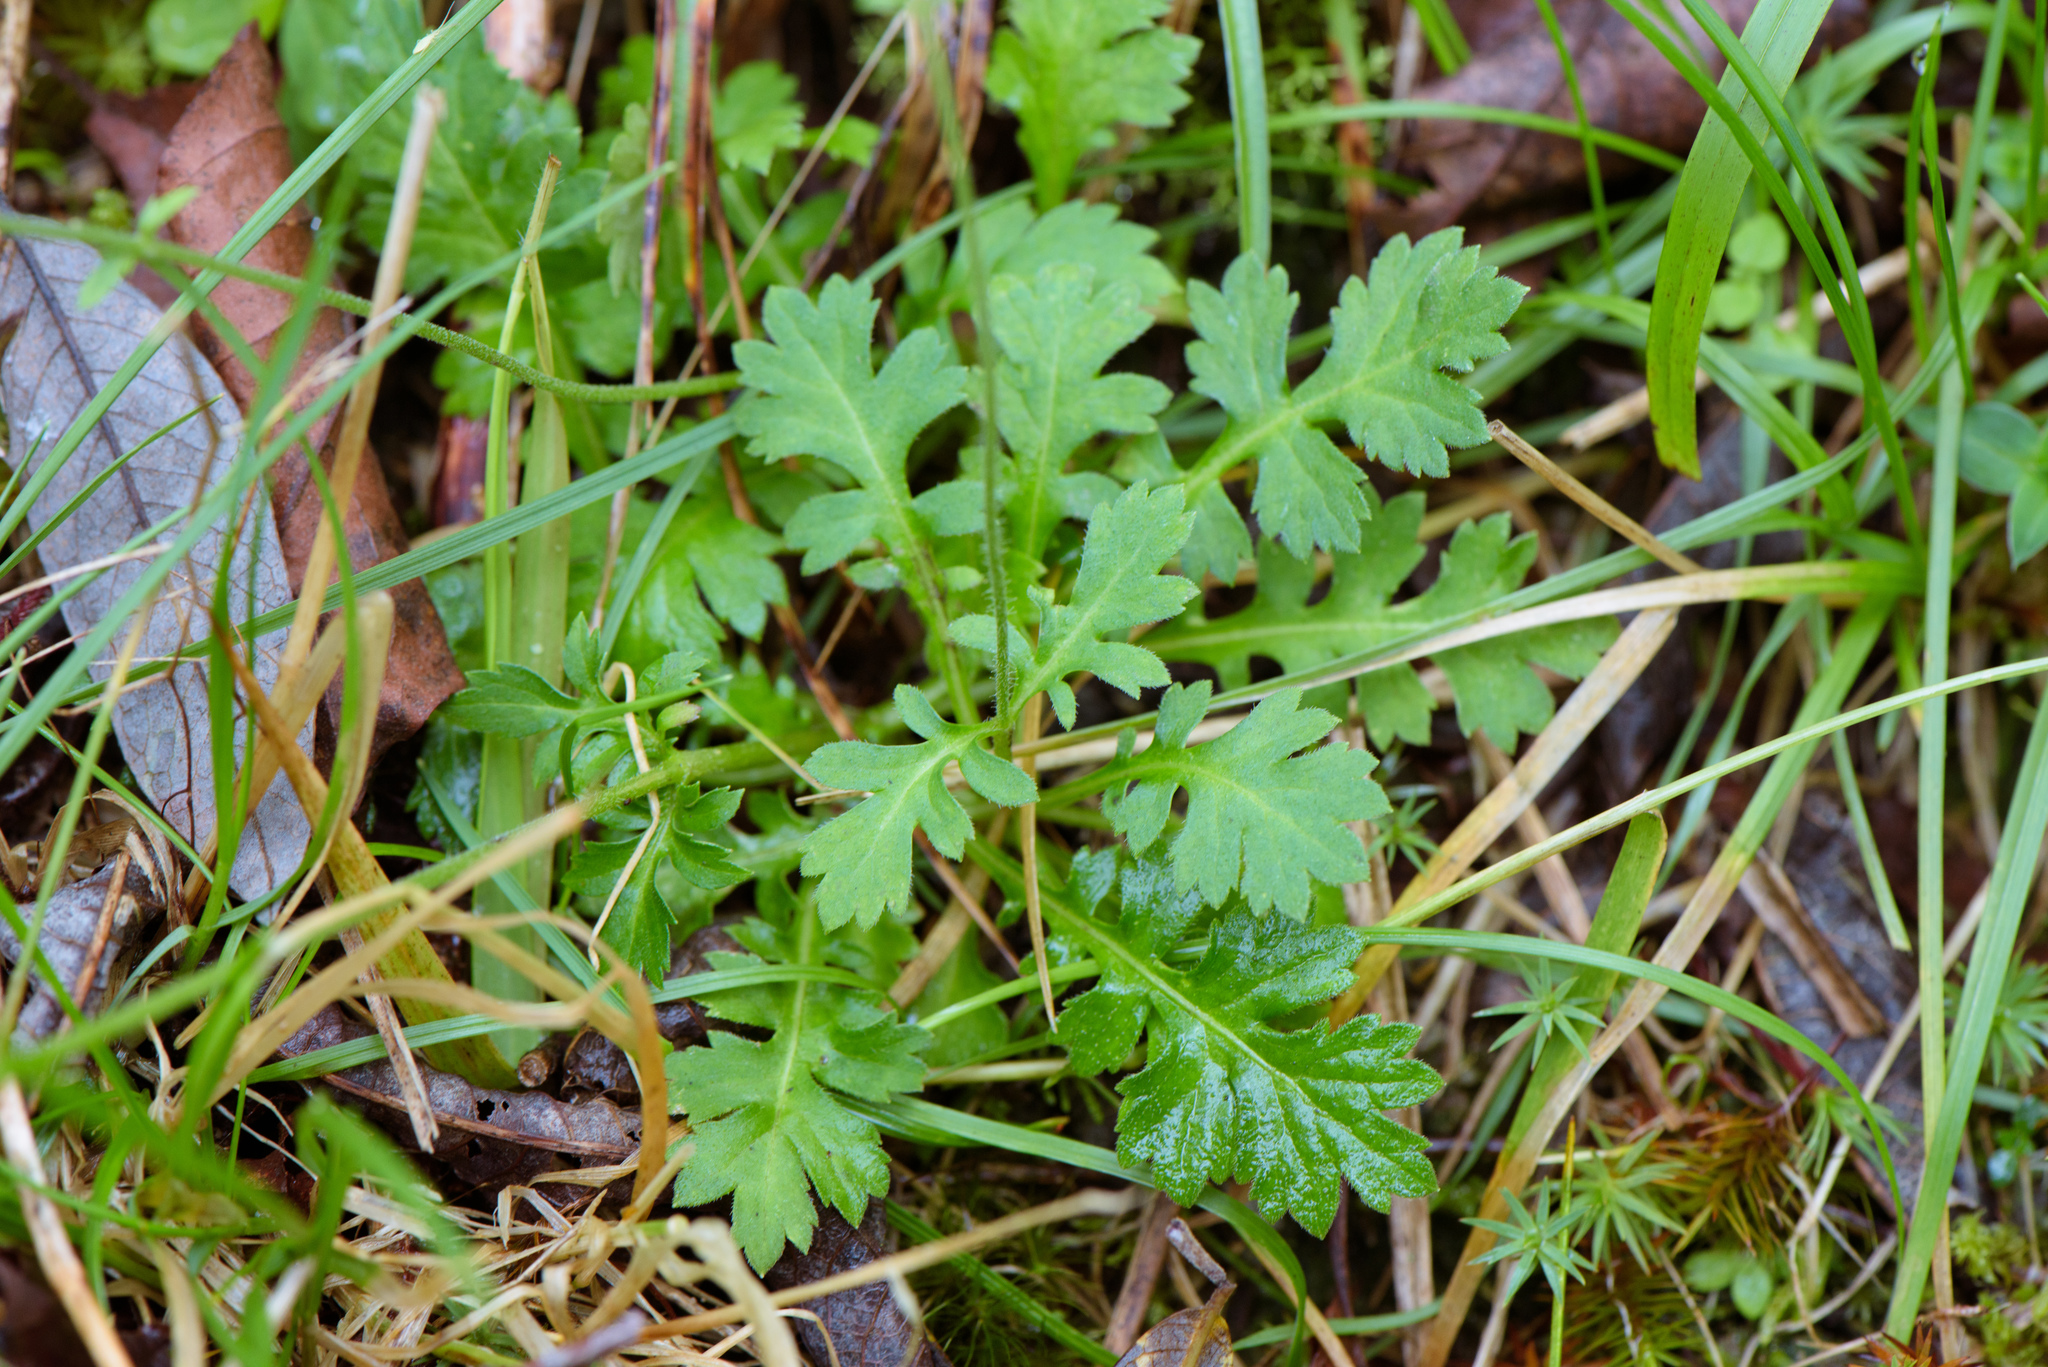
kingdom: Plantae
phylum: Tracheophyta
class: Magnoliopsida
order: Dipsacales
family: Caprifoliaceae
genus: Triplostegia
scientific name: Triplostegia glandulifera
